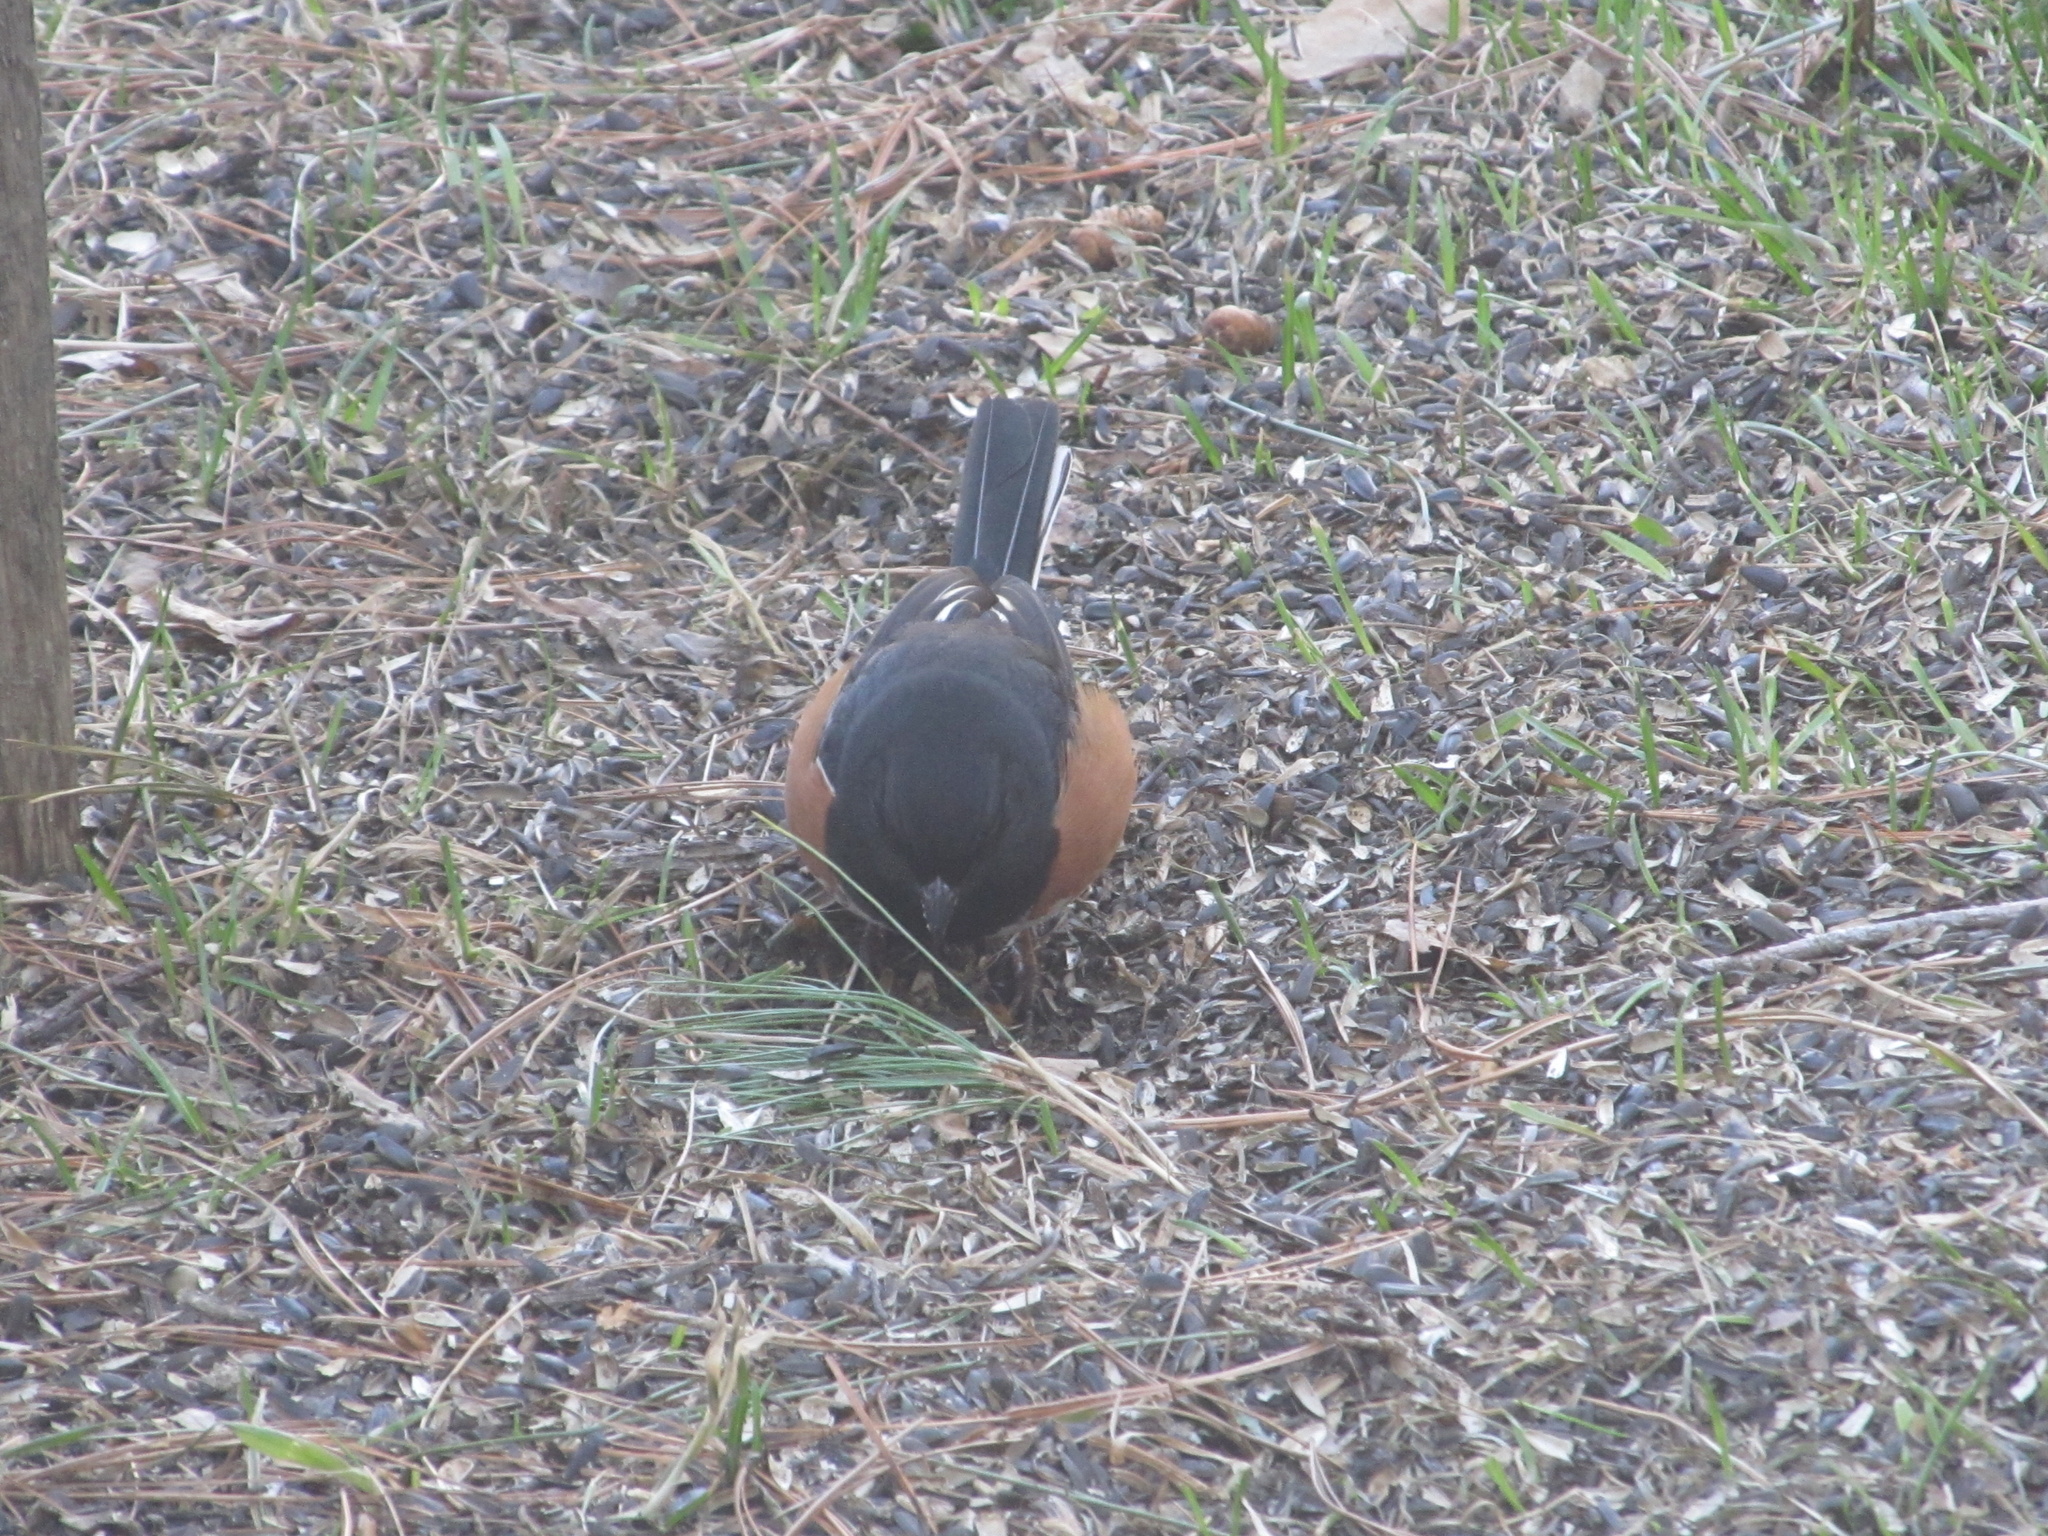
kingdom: Animalia
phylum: Chordata
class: Aves
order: Passeriformes
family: Passerellidae
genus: Pipilo
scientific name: Pipilo erythrophthalmus
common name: Eastern towhee
